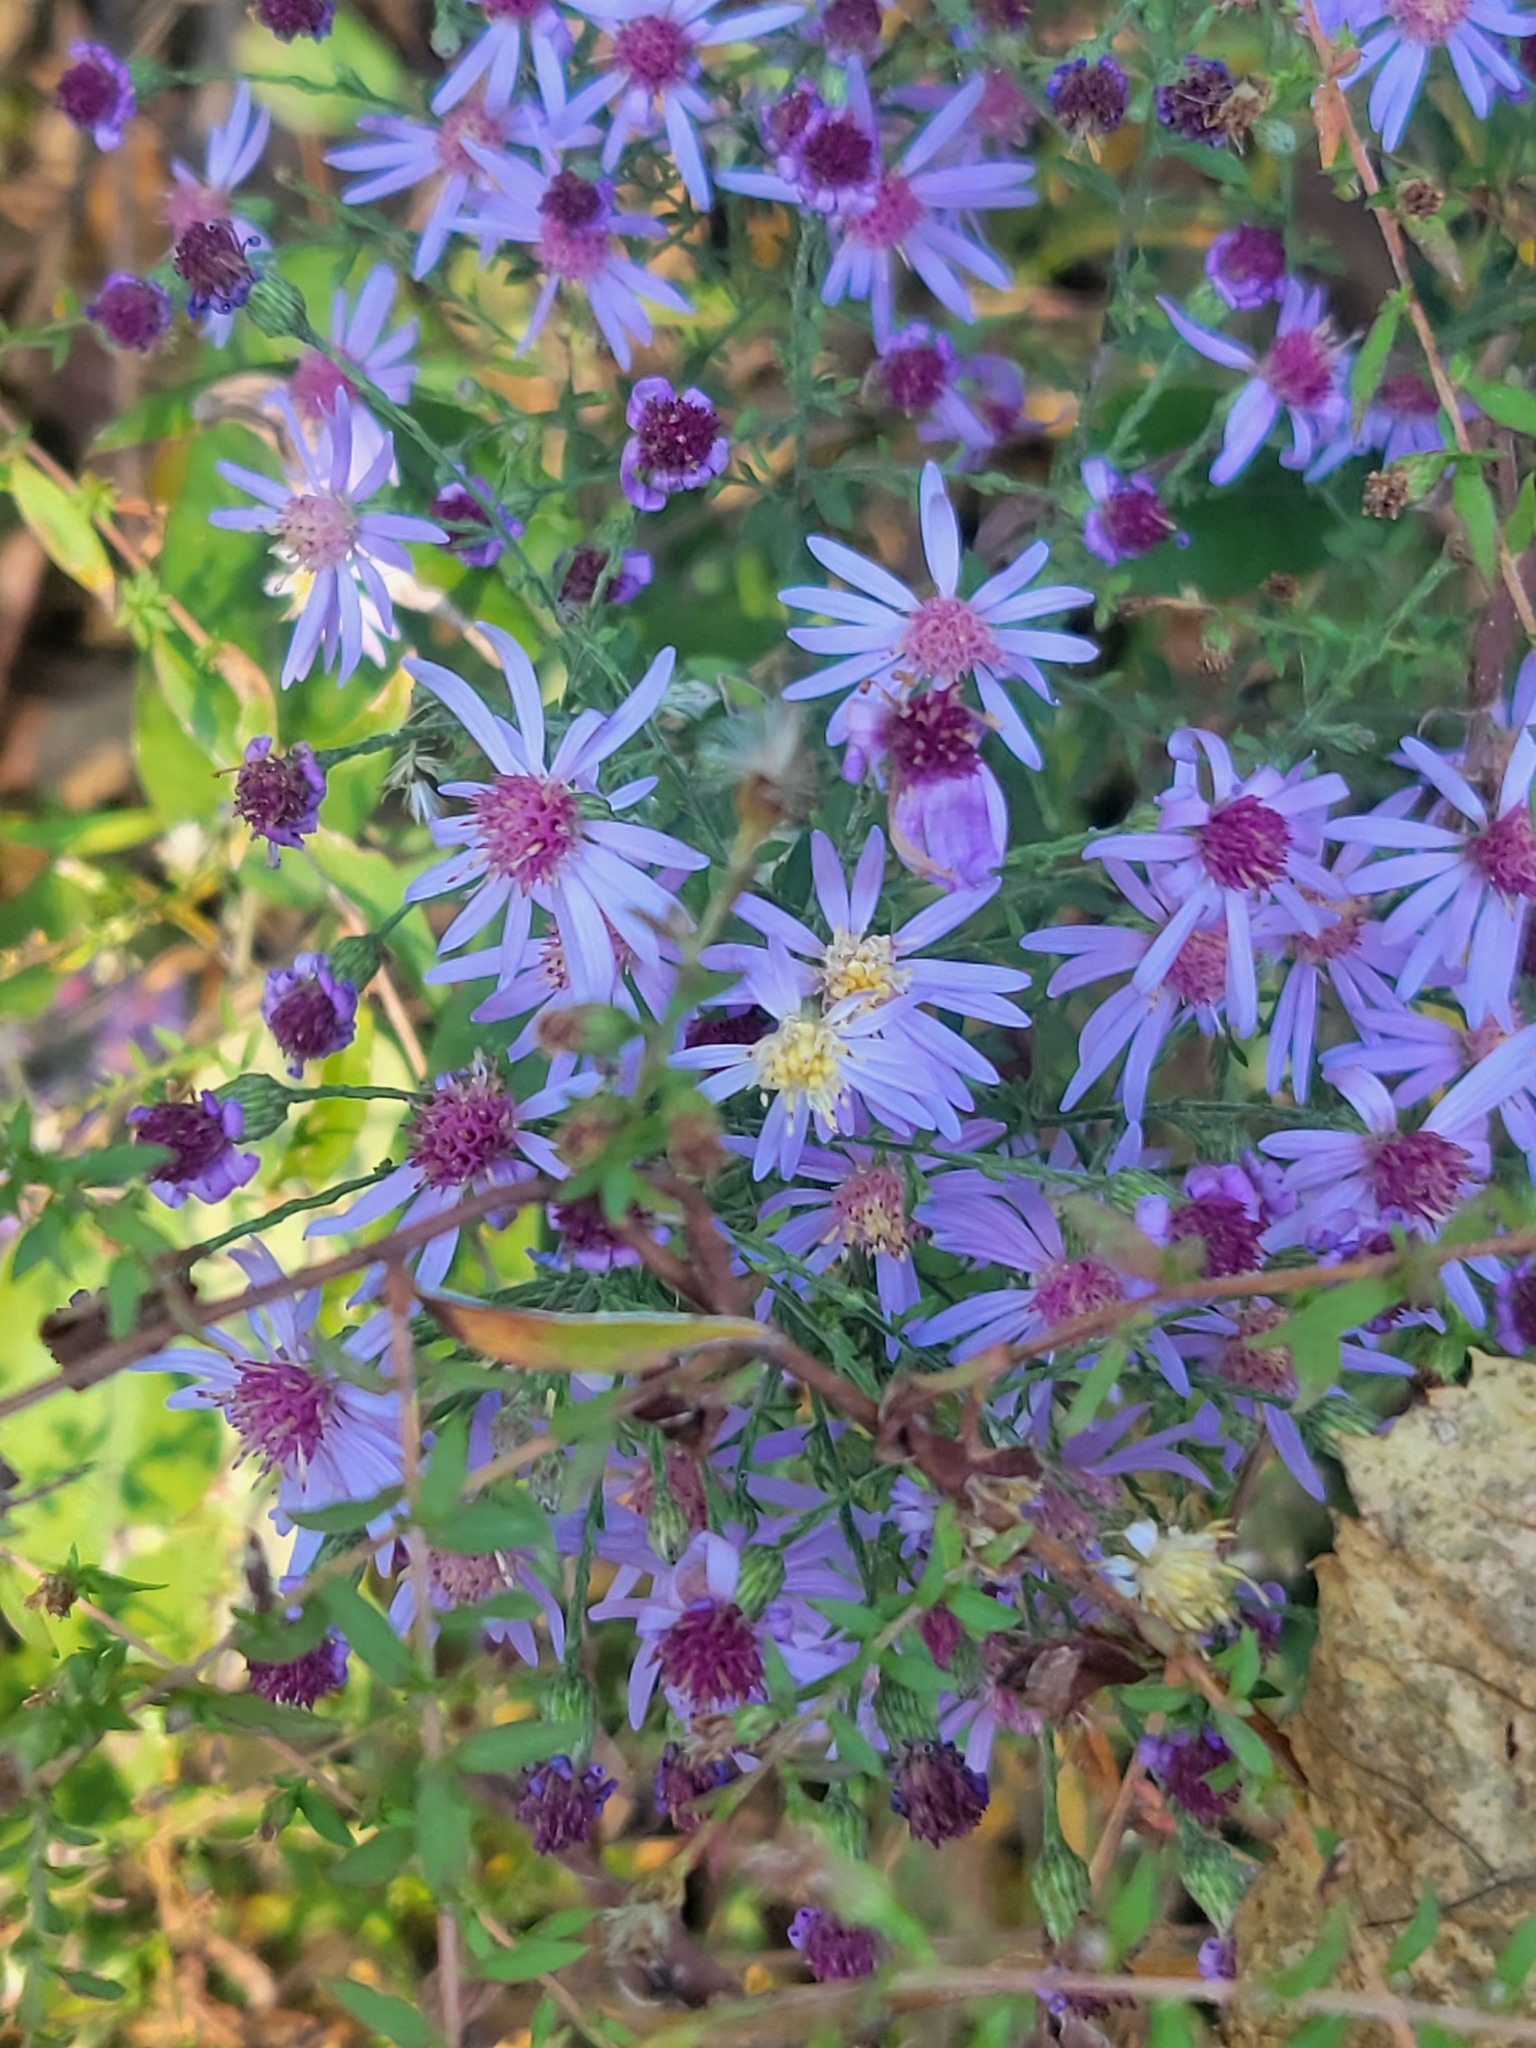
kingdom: Plantae
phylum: Tracheophyta
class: Magnoliopsida
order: Asterales
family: Asteraceae
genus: Symphyotrichum
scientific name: Symphyotrichum shortii
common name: Short's aster
